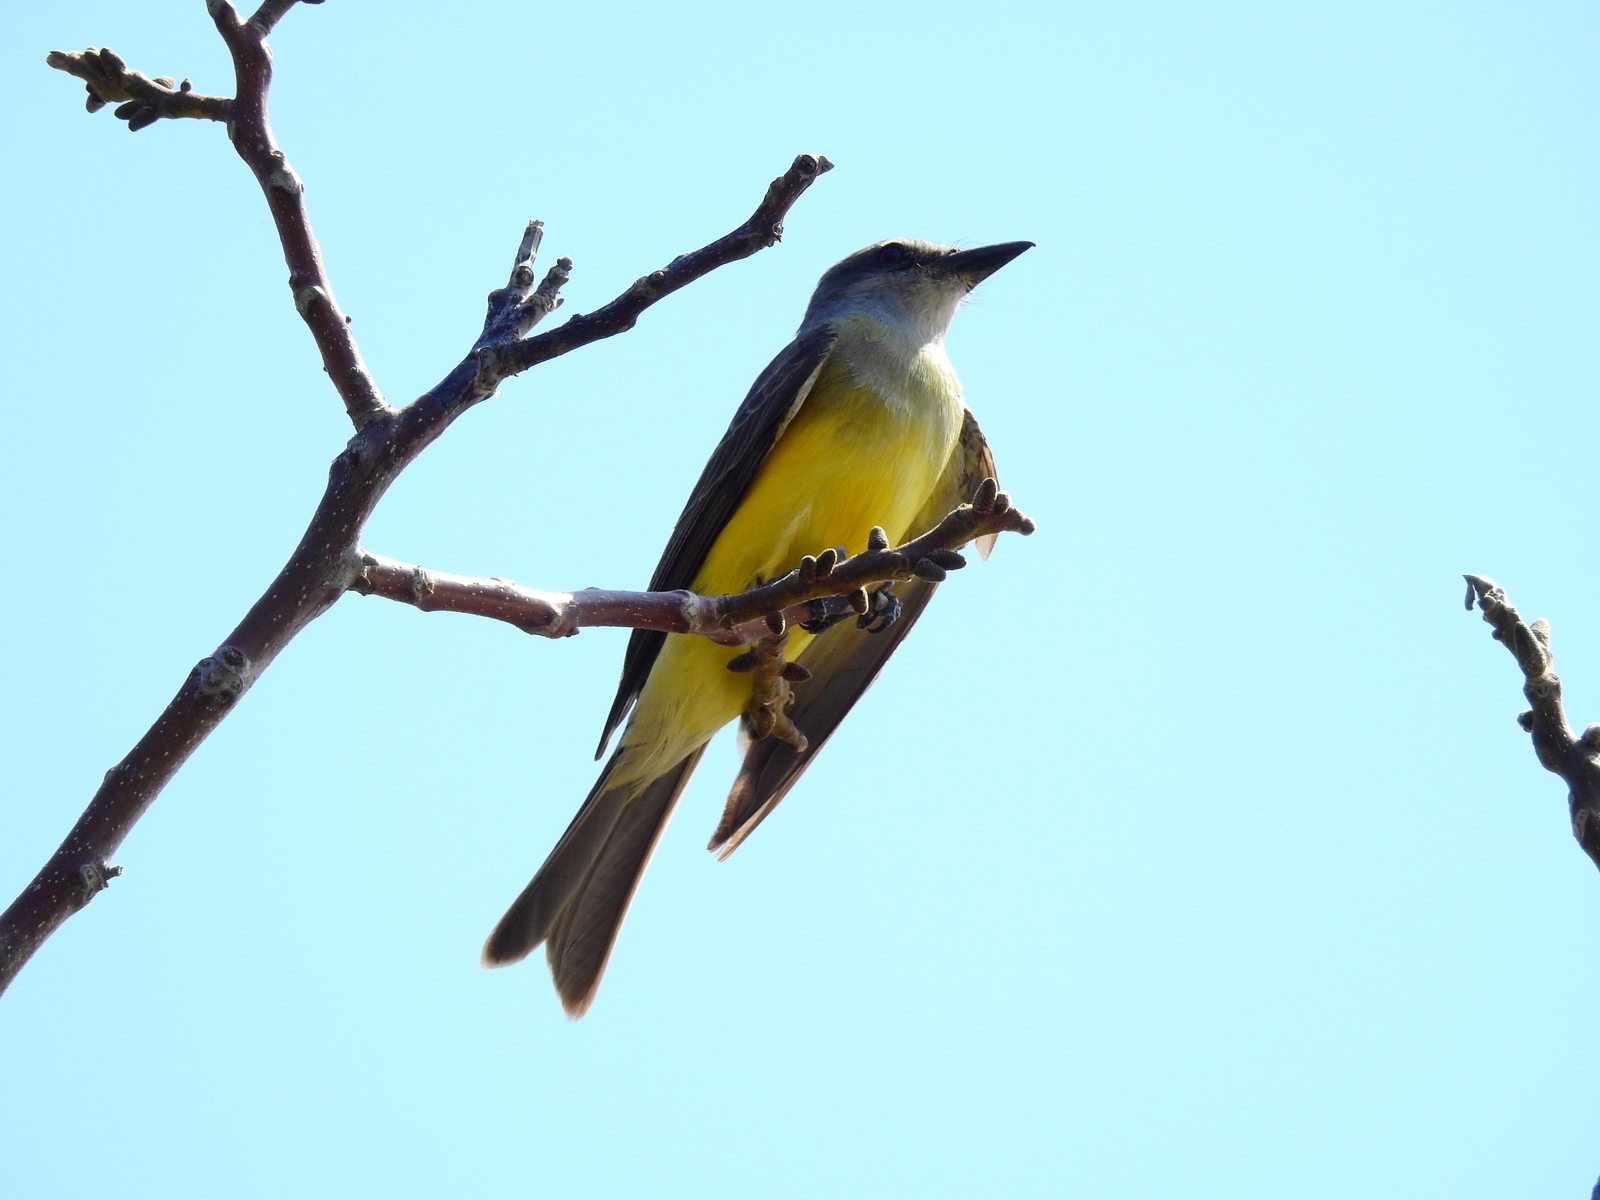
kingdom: Animalia
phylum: Chordata
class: Aves
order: Passeriformes
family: Tyrannidae
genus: Tyrannus
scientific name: Tyrannus melancholicus
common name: Tropical kingbird
